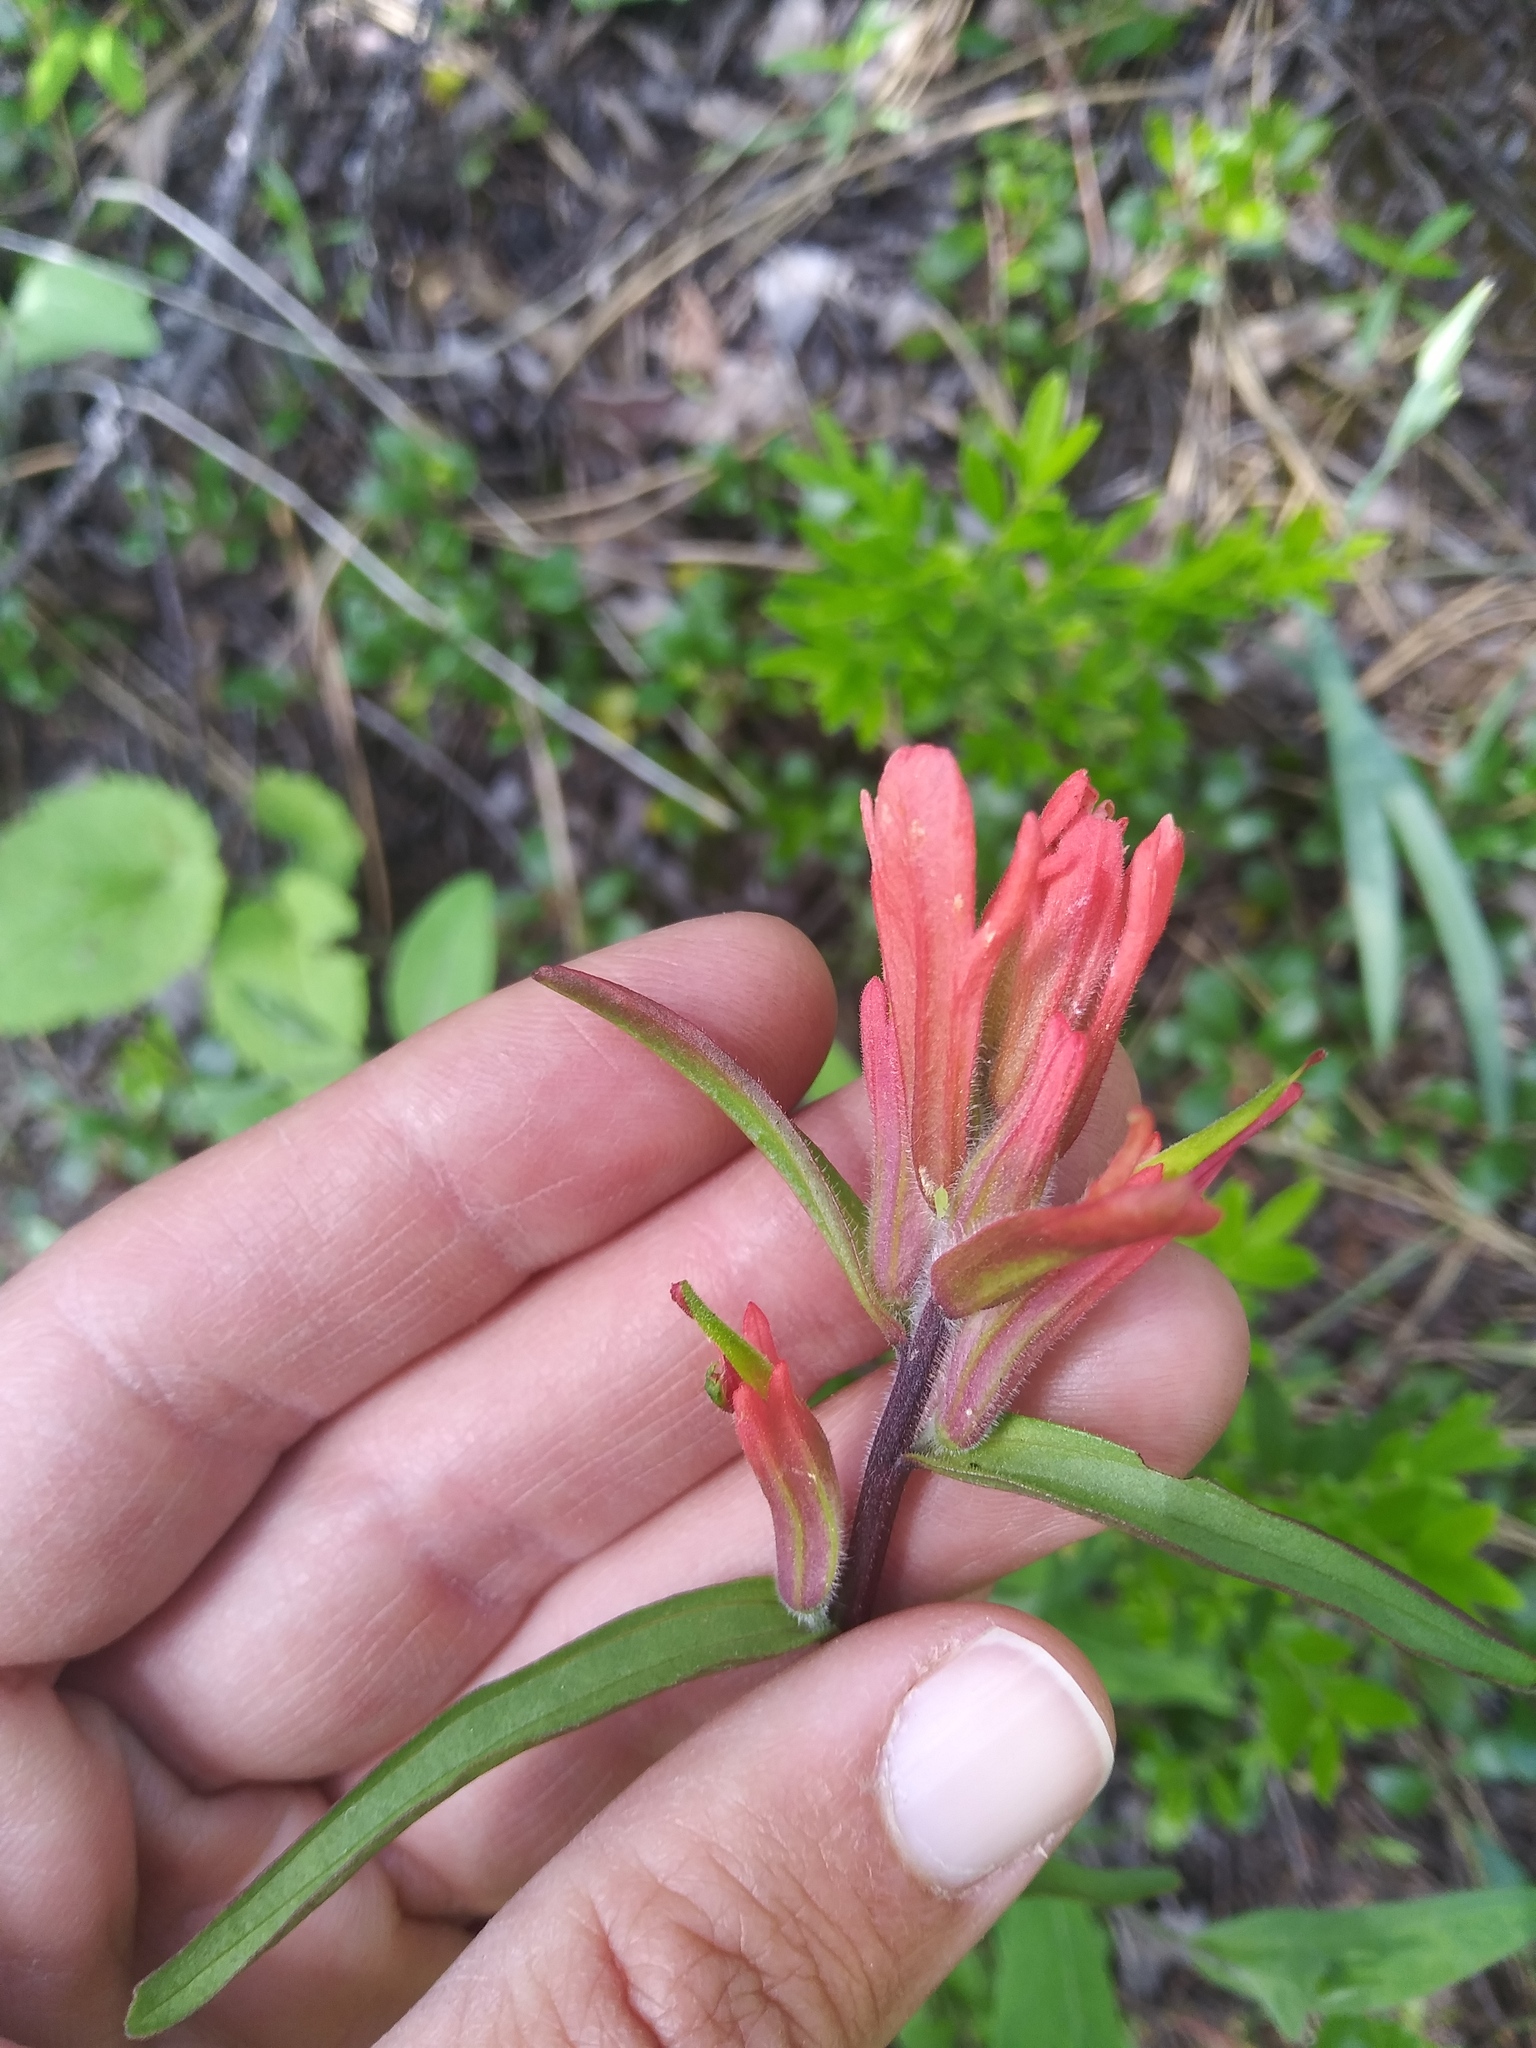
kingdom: Plantae
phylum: Tracheophyta
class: Magnoliopsida
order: Lamiales
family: Orobanchaceae
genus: Castilleja
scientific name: Castilleja miniata
